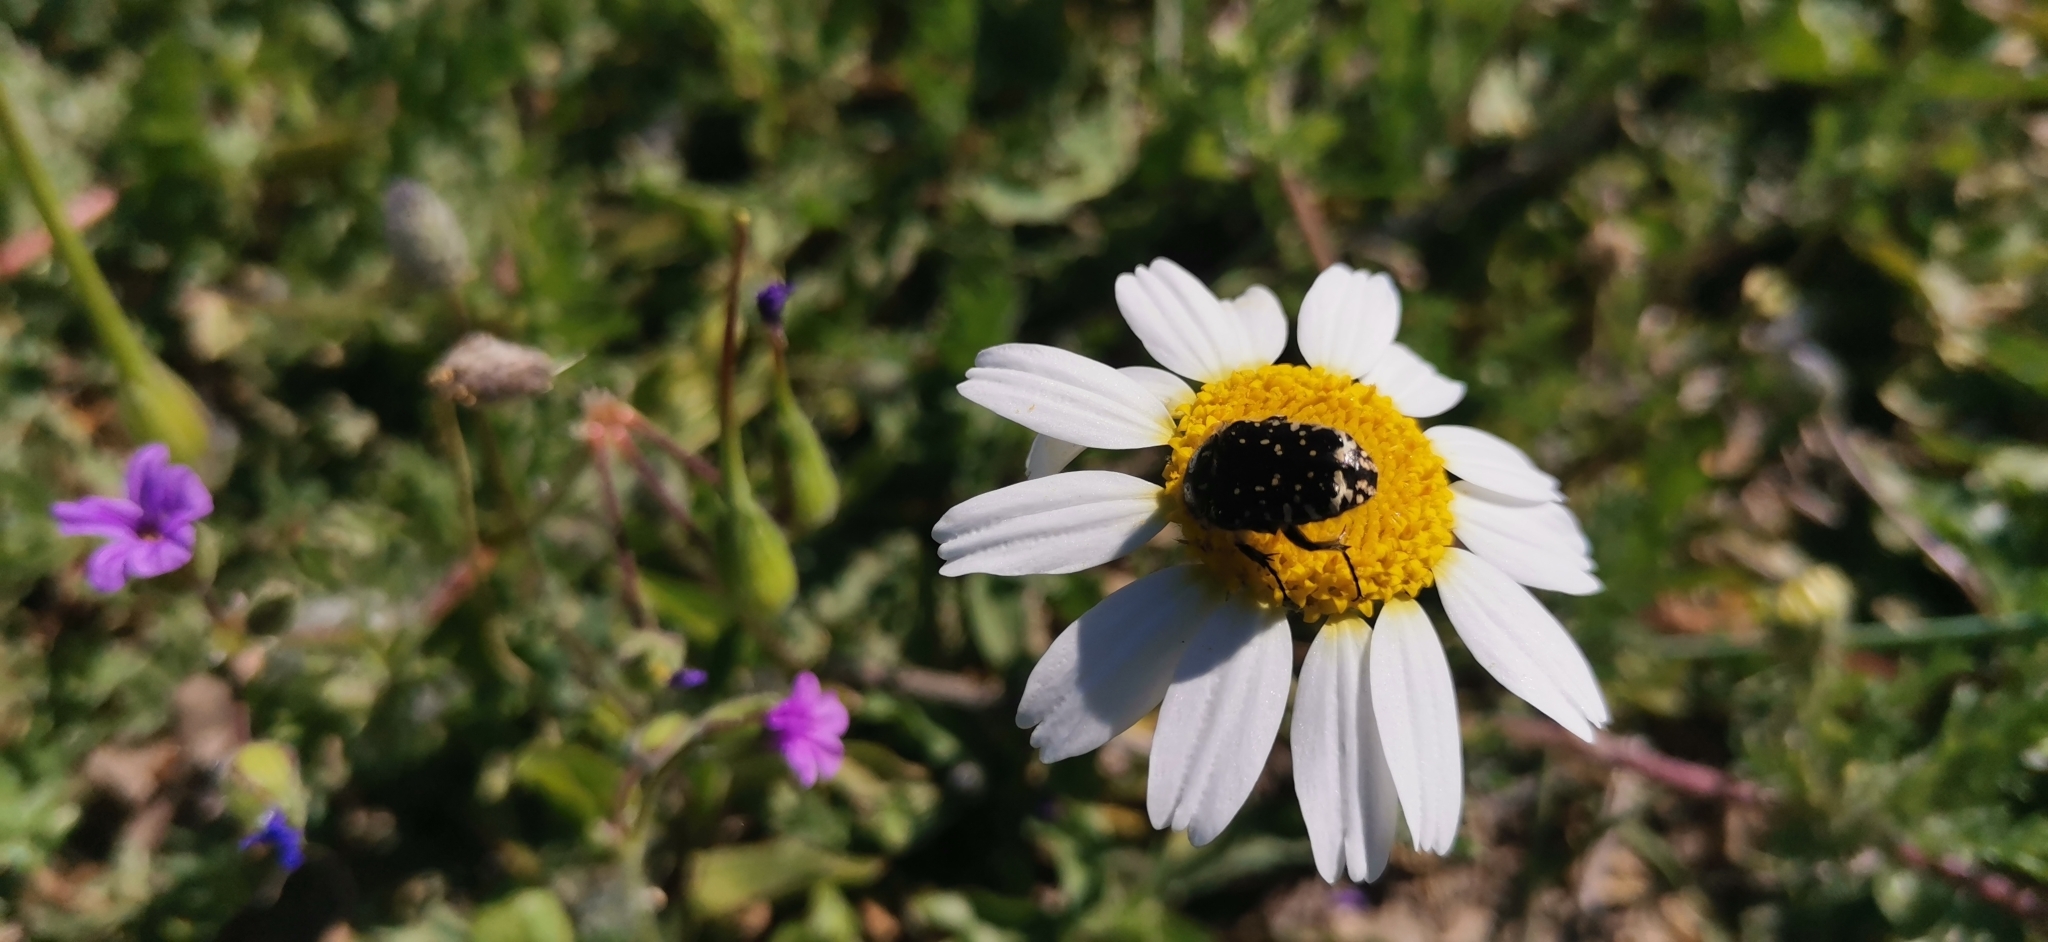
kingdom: Animalia
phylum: Arthropoda
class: Insecta
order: Coleoptera
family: Scarabaeidae
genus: Oxythyrea
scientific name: Oxythyrea funesta
